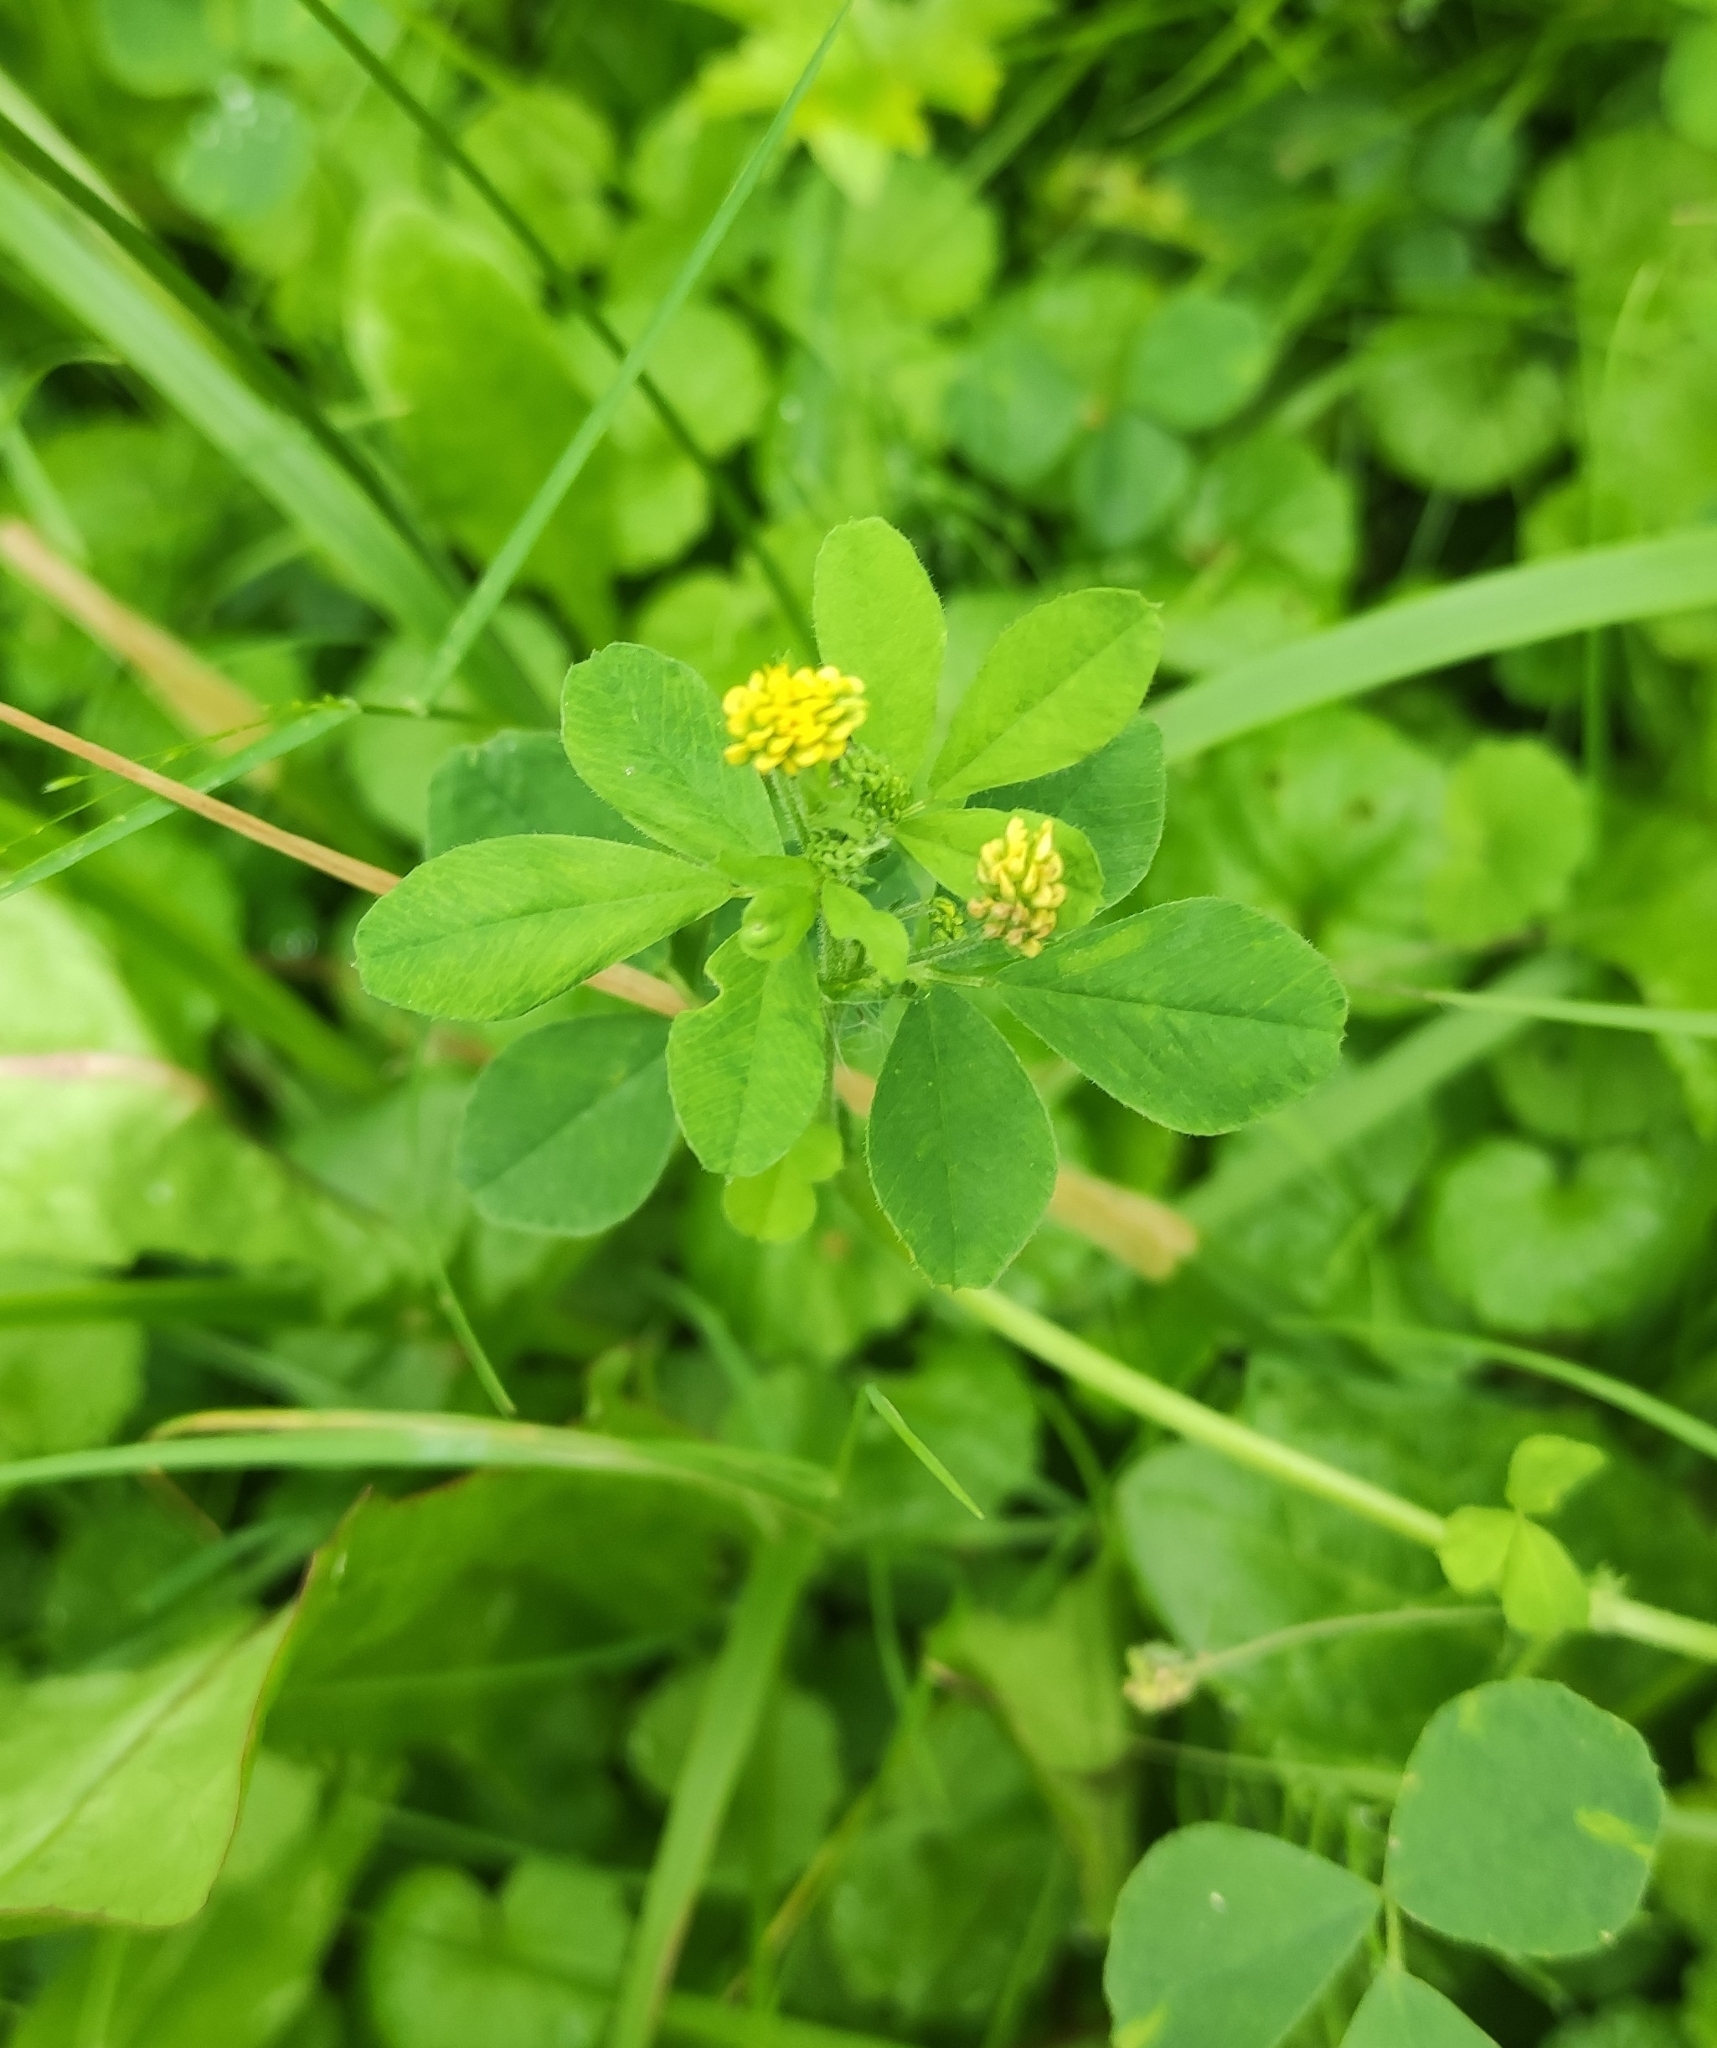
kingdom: Plantae
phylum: Tracheophyta
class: Magnoliopsida
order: Fabales
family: Fabaceae
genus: Medicago
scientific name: Medicago lupulina
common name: Black medick
